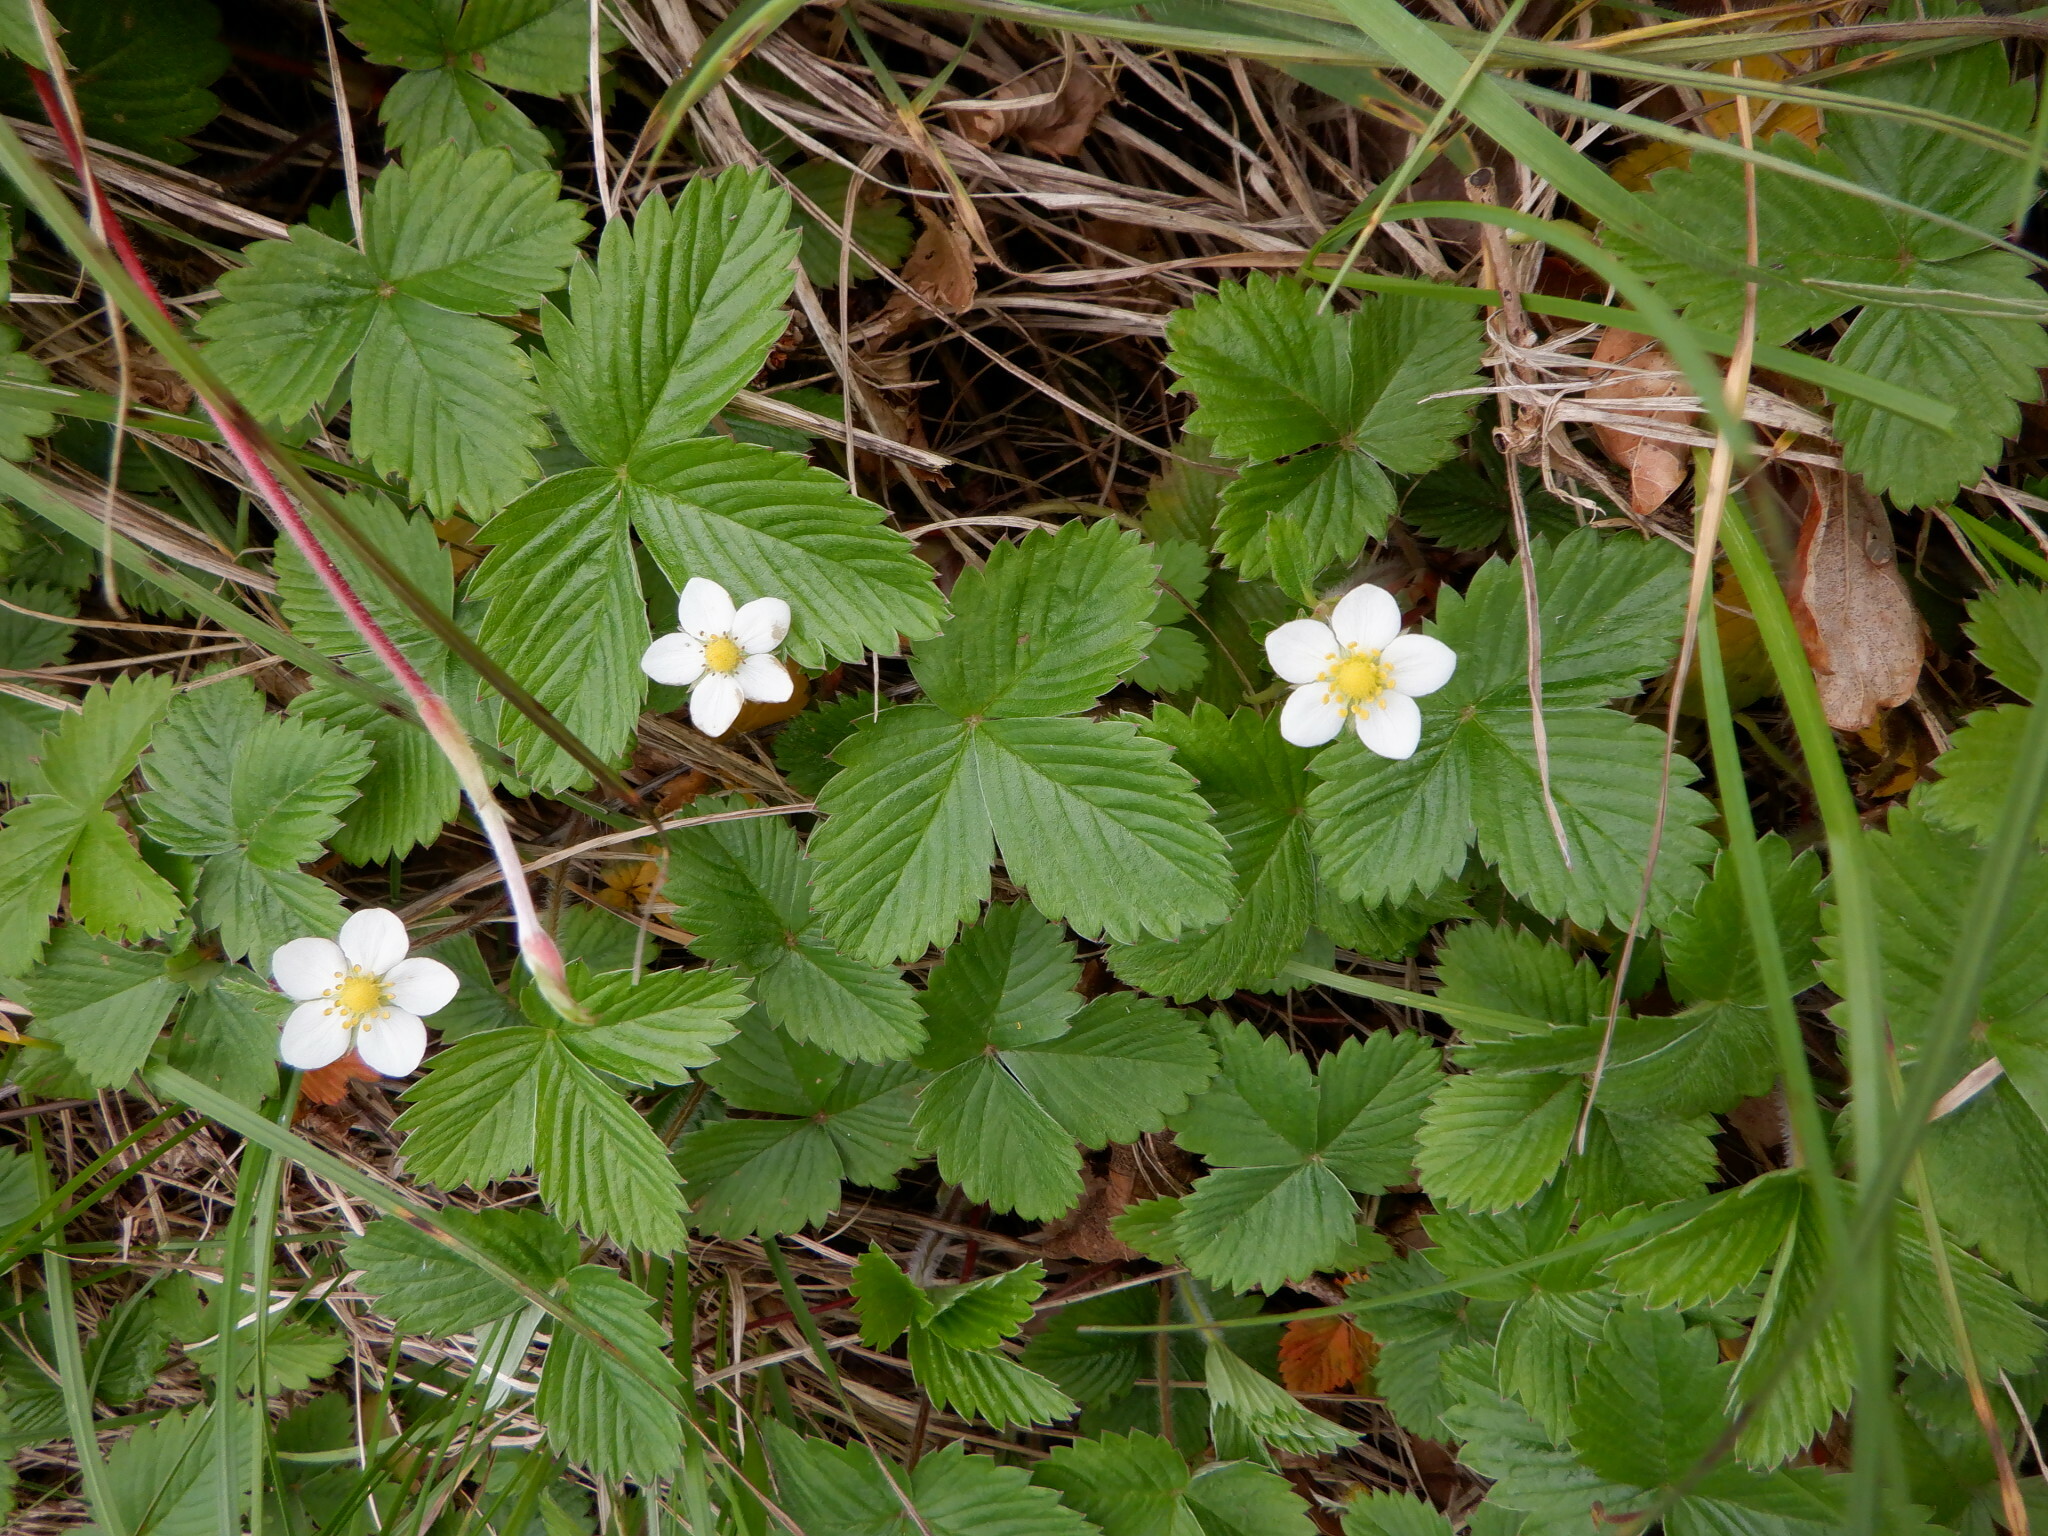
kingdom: Plantae
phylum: Tracheophyta
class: Magnoliopsida
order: Rosales
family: Rosaceae
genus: Fragaria
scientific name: Fragaria vesca
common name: Wild strawberry
